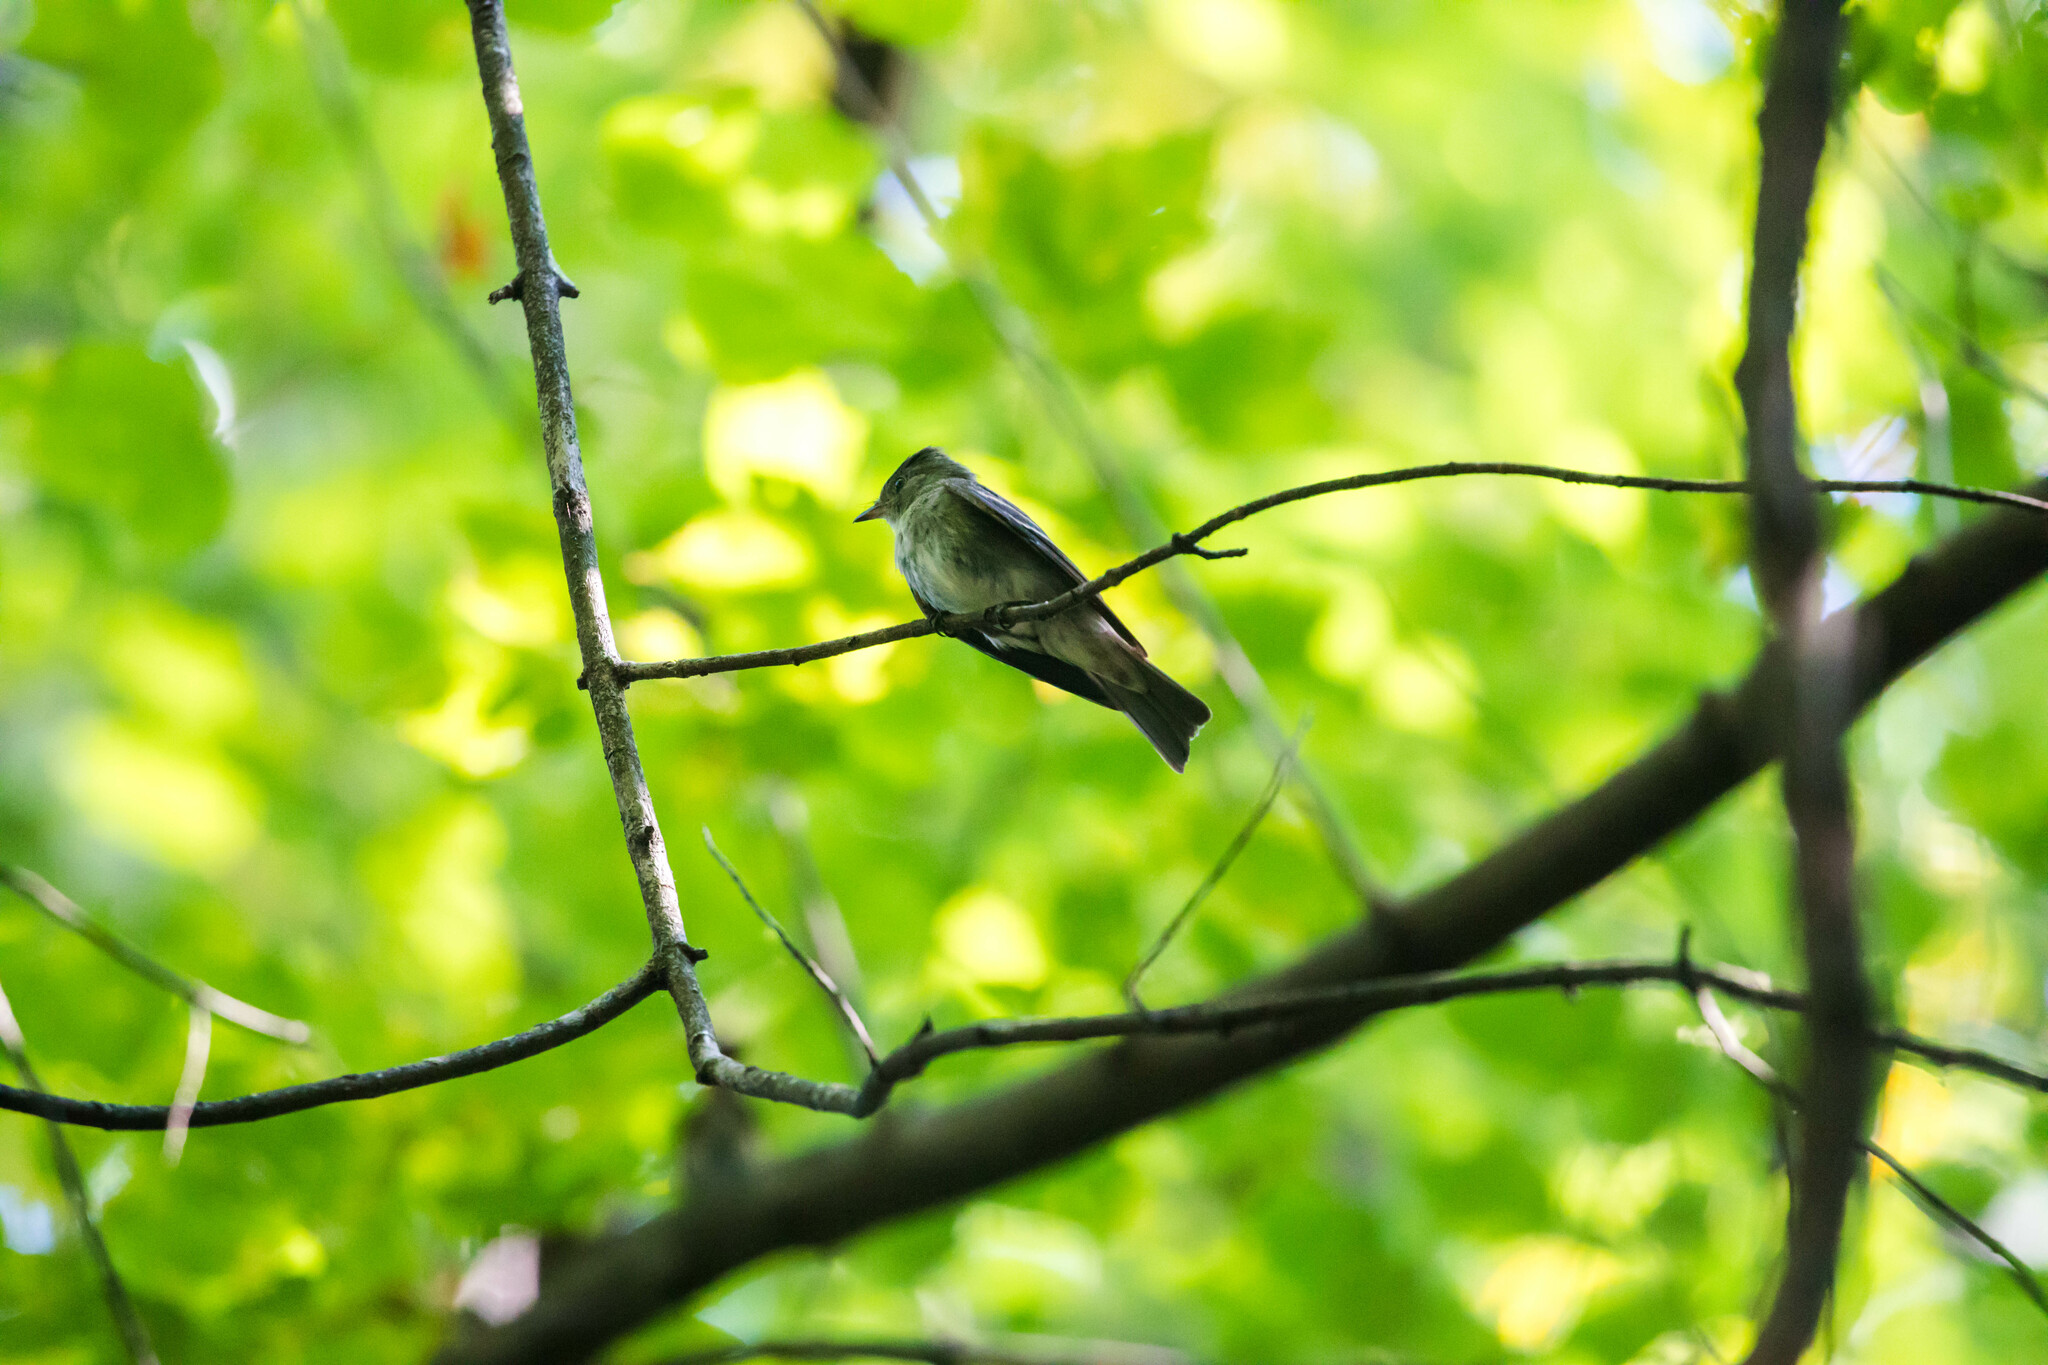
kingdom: Animalia
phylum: Chordata
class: Aves
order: Passeriformes
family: Tyrannidae
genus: Contopus
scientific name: Contopus virens
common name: Eastern wood-pewee
